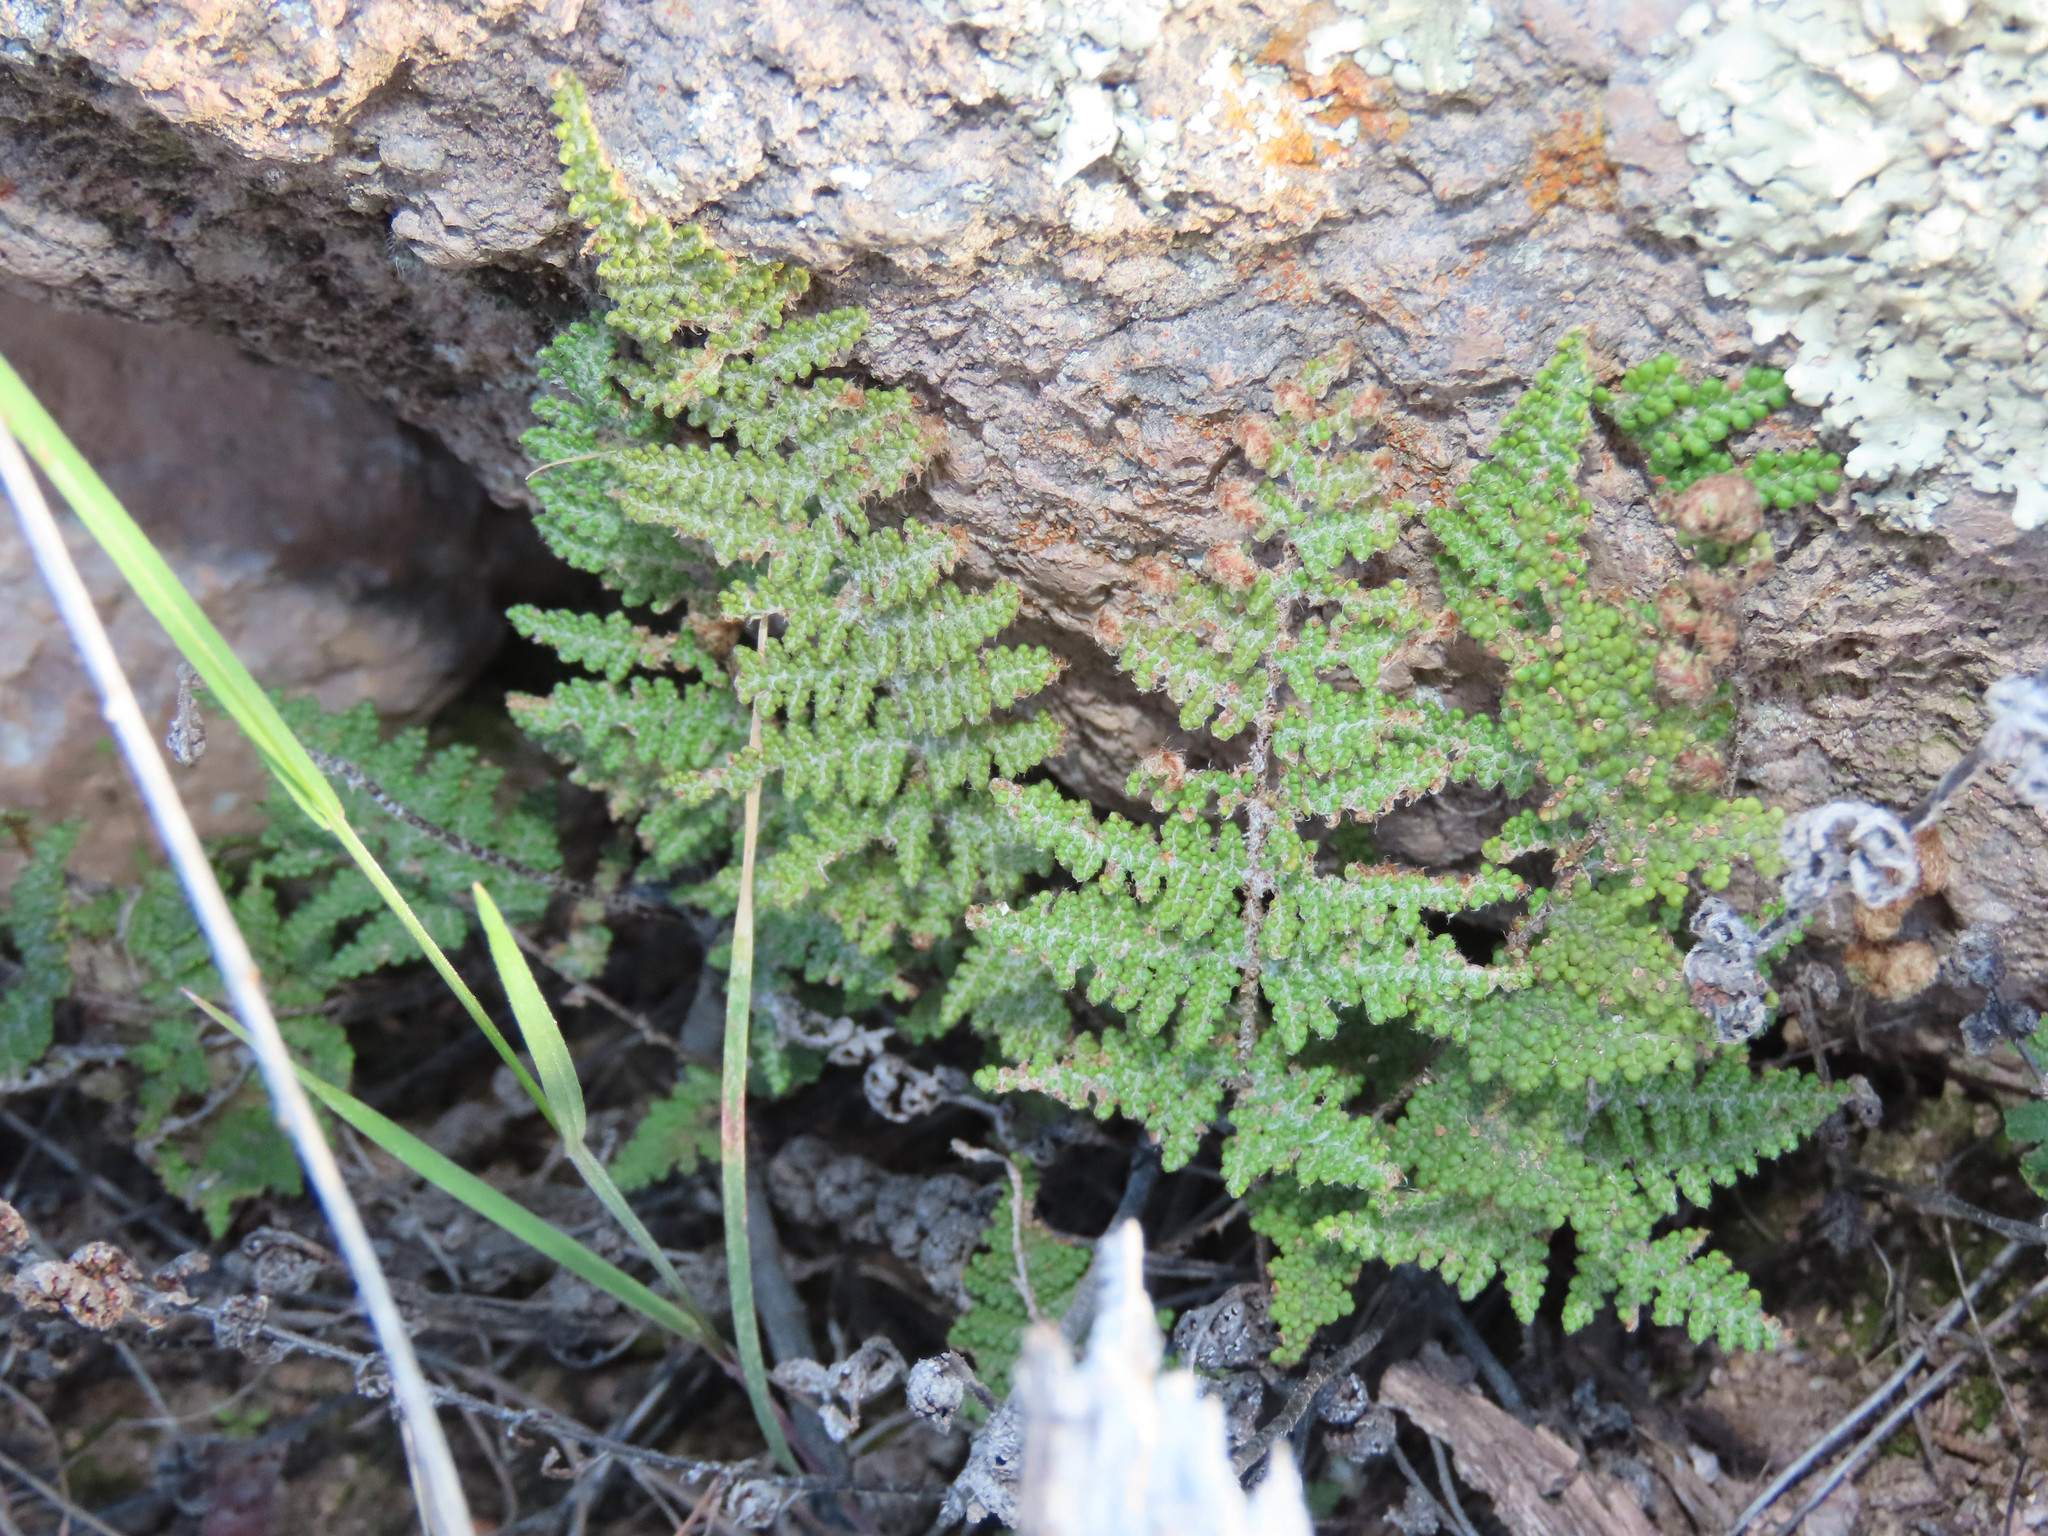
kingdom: Plantae
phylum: Tracheophyta
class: Polypodiopsida
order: Polypodiales
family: Pteridaceae
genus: Myriopteris
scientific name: Myriopteris covillei
